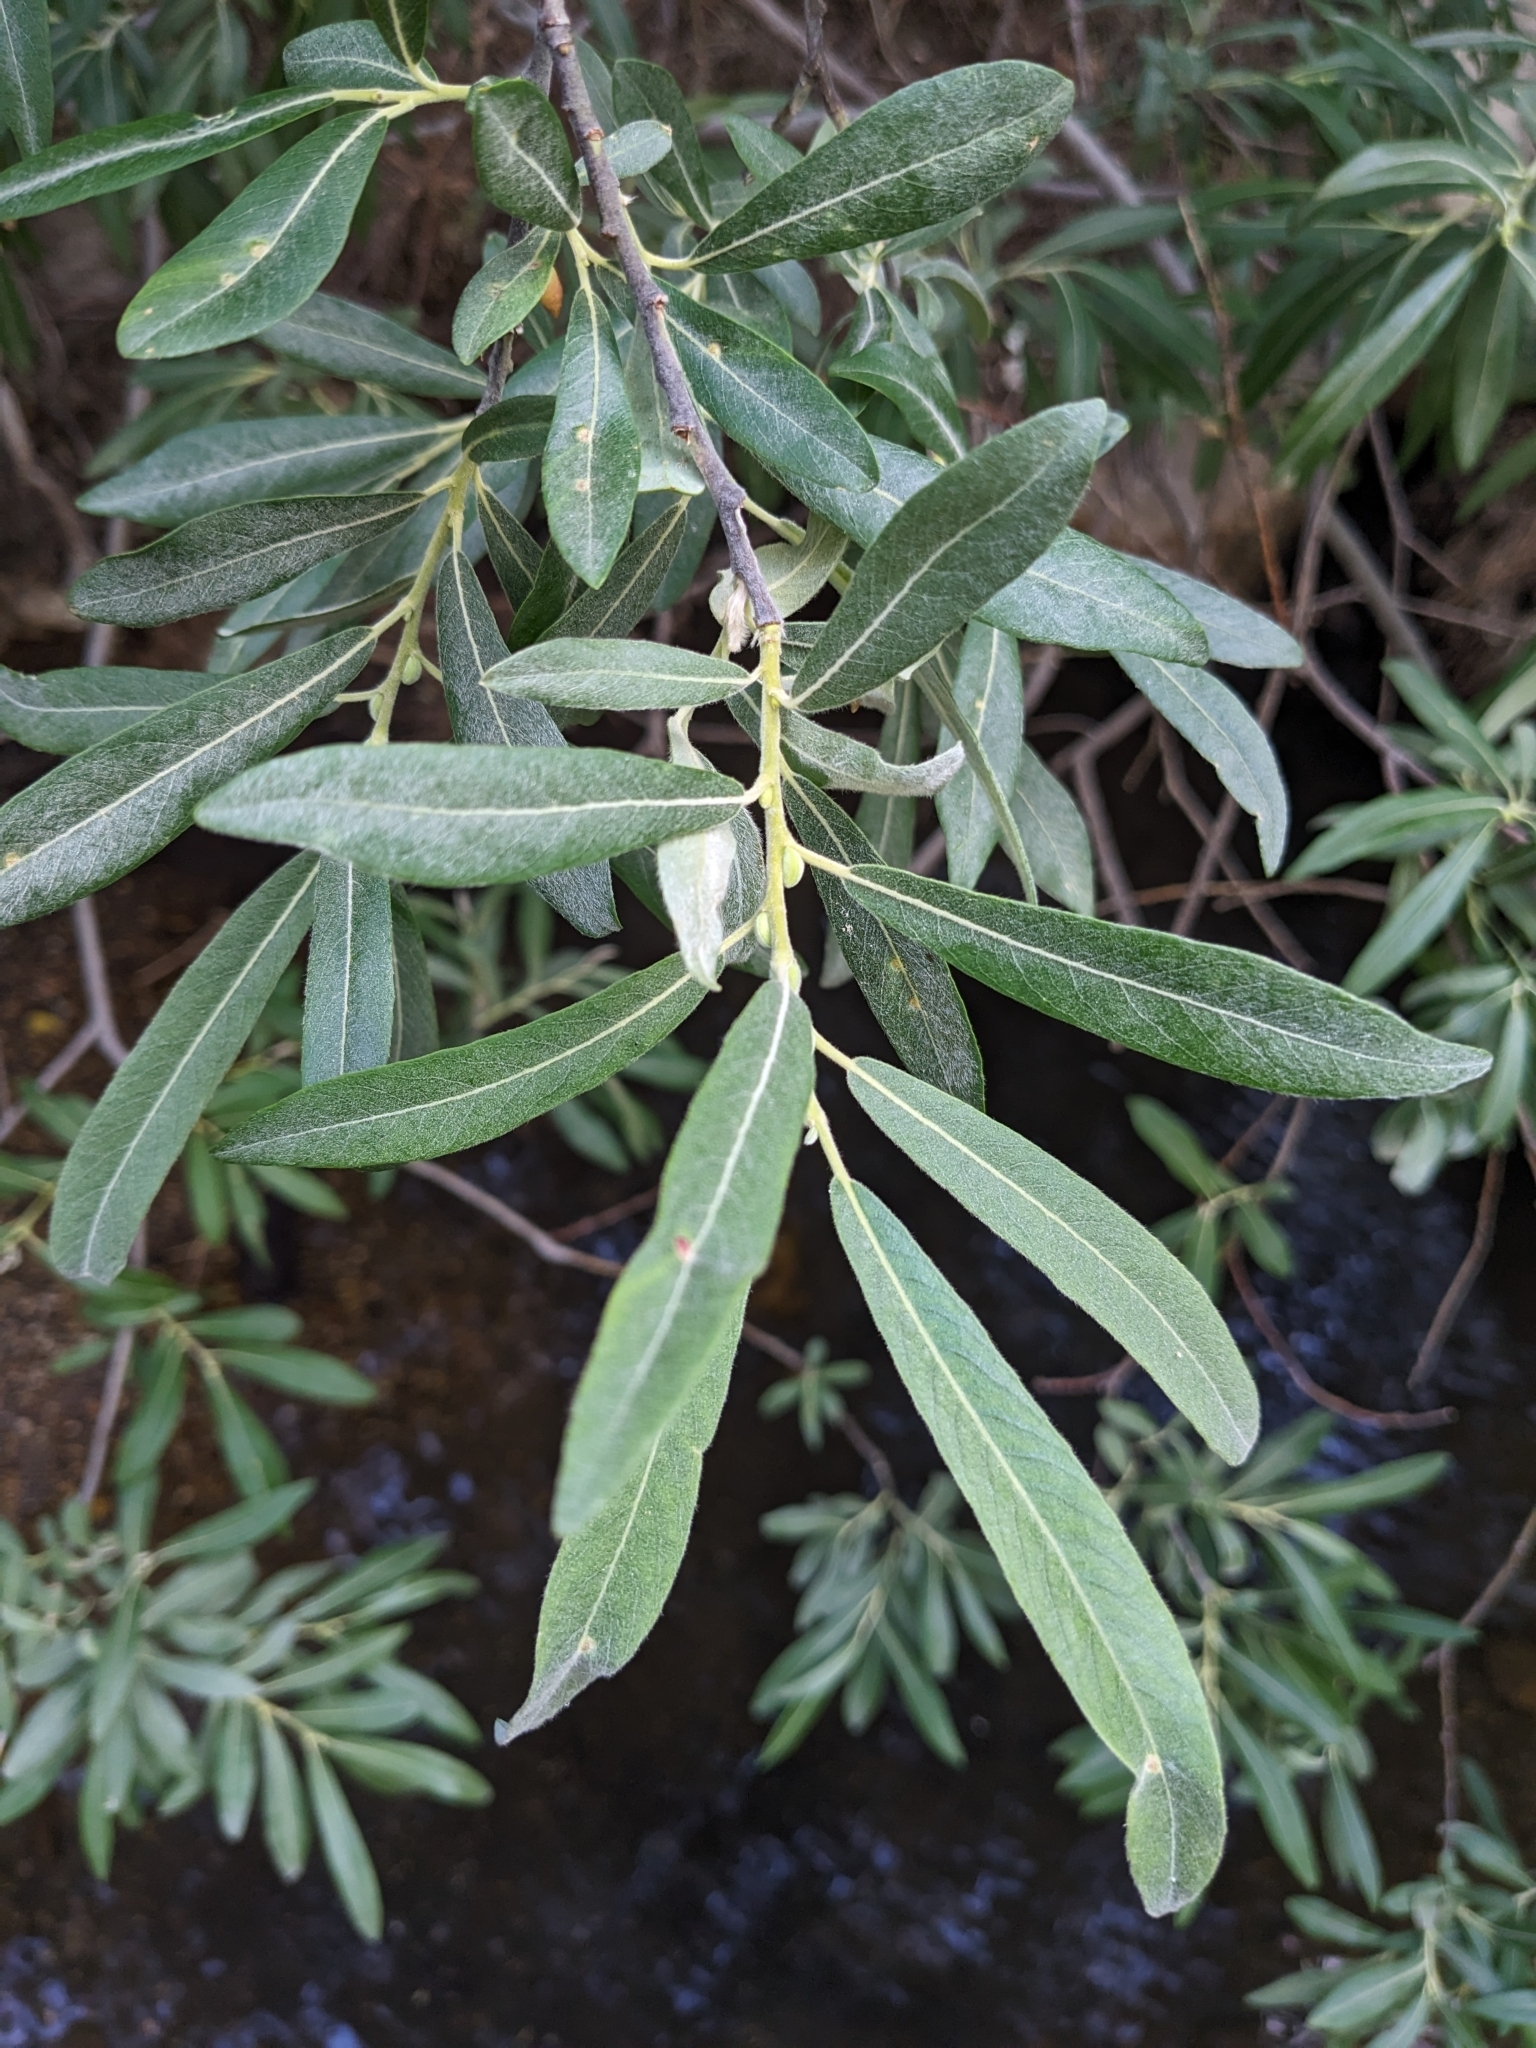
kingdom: Plantae
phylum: Tracheophyta
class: Magnoliopsida
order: Malpighiales
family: Salicaceae
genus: Salix
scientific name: Salix lasiolepis
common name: Arroyo willow
